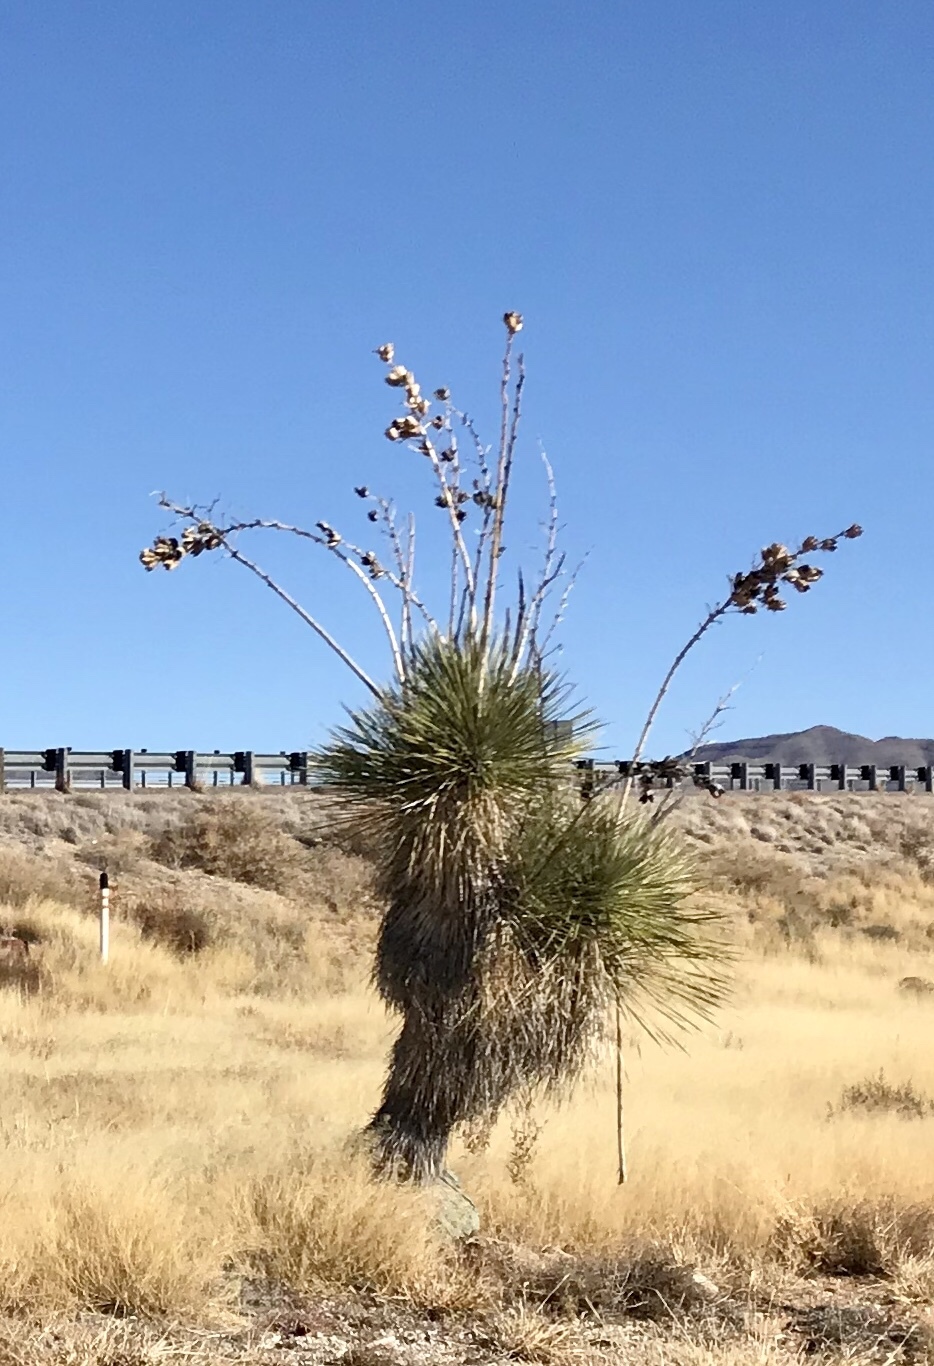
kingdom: Plantae
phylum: Tracheophyta
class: Liliopsida
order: Asparagales
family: Asparagaceae
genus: Yucca
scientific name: Yucca elata
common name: Palmella
